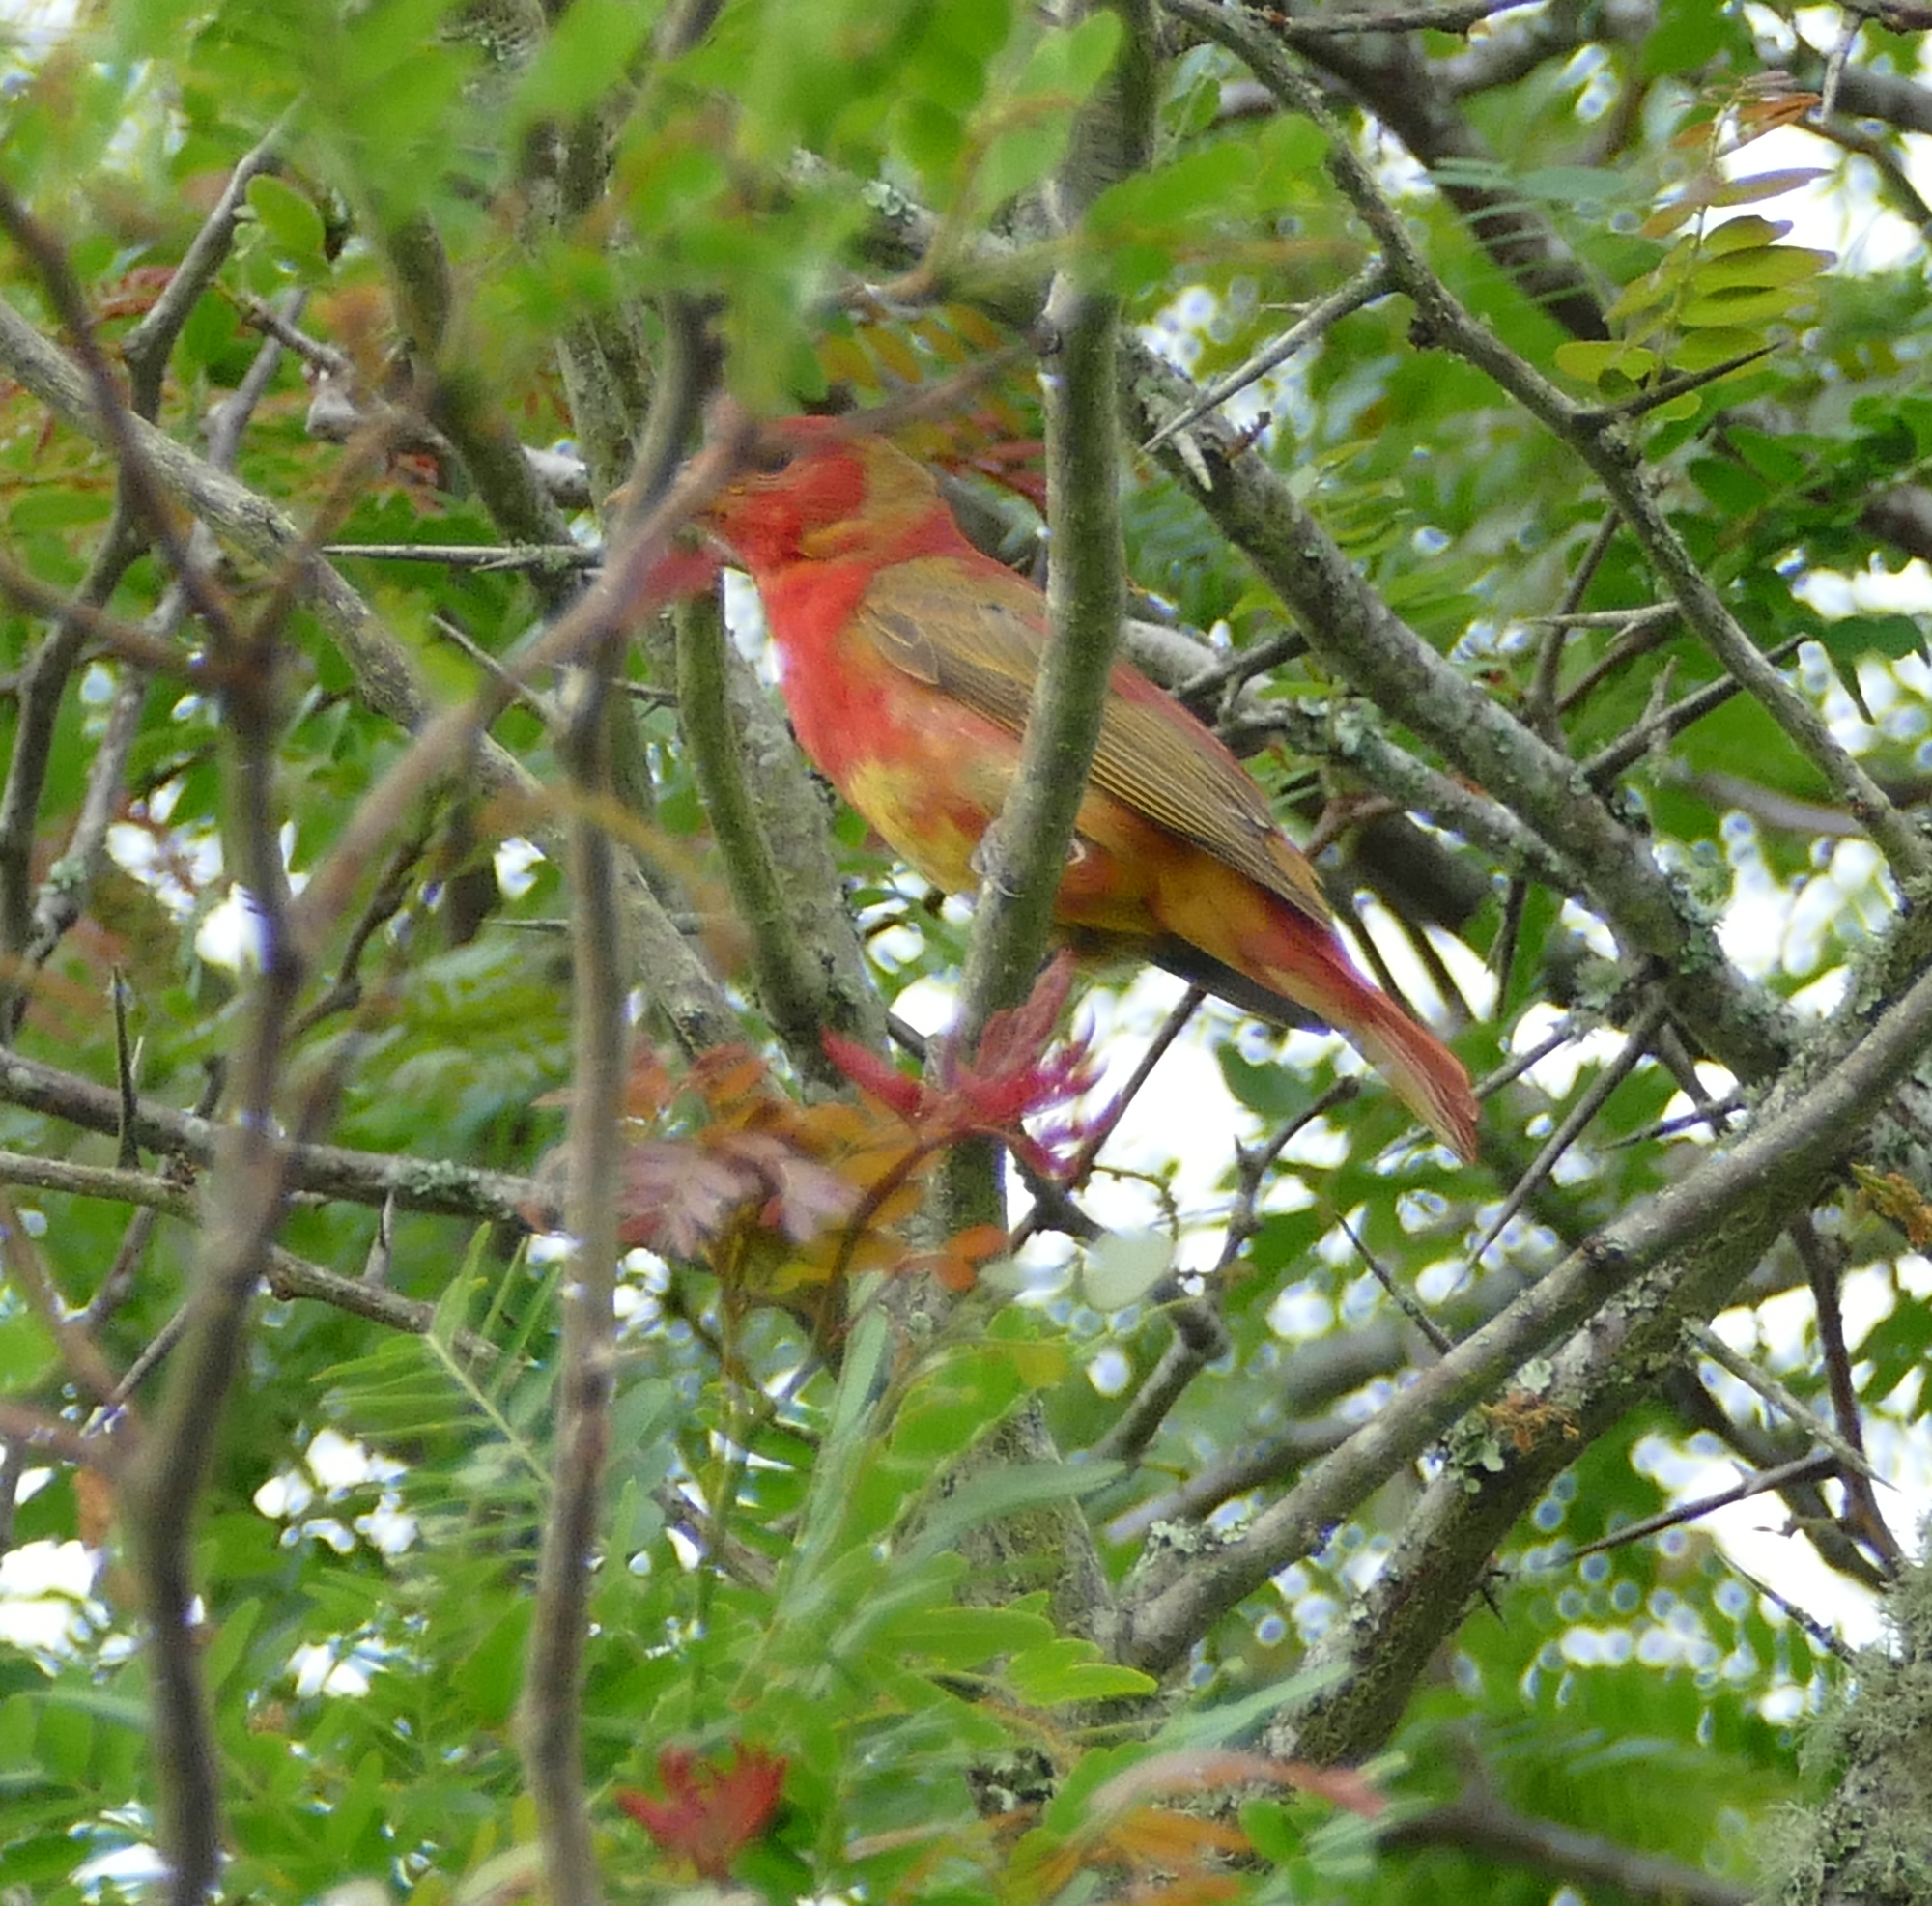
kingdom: Animalia
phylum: Chordata
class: Aves
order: Passeriformes
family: Cardinalidae
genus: Piranga
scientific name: Piranga rubra
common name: Summer tanager
